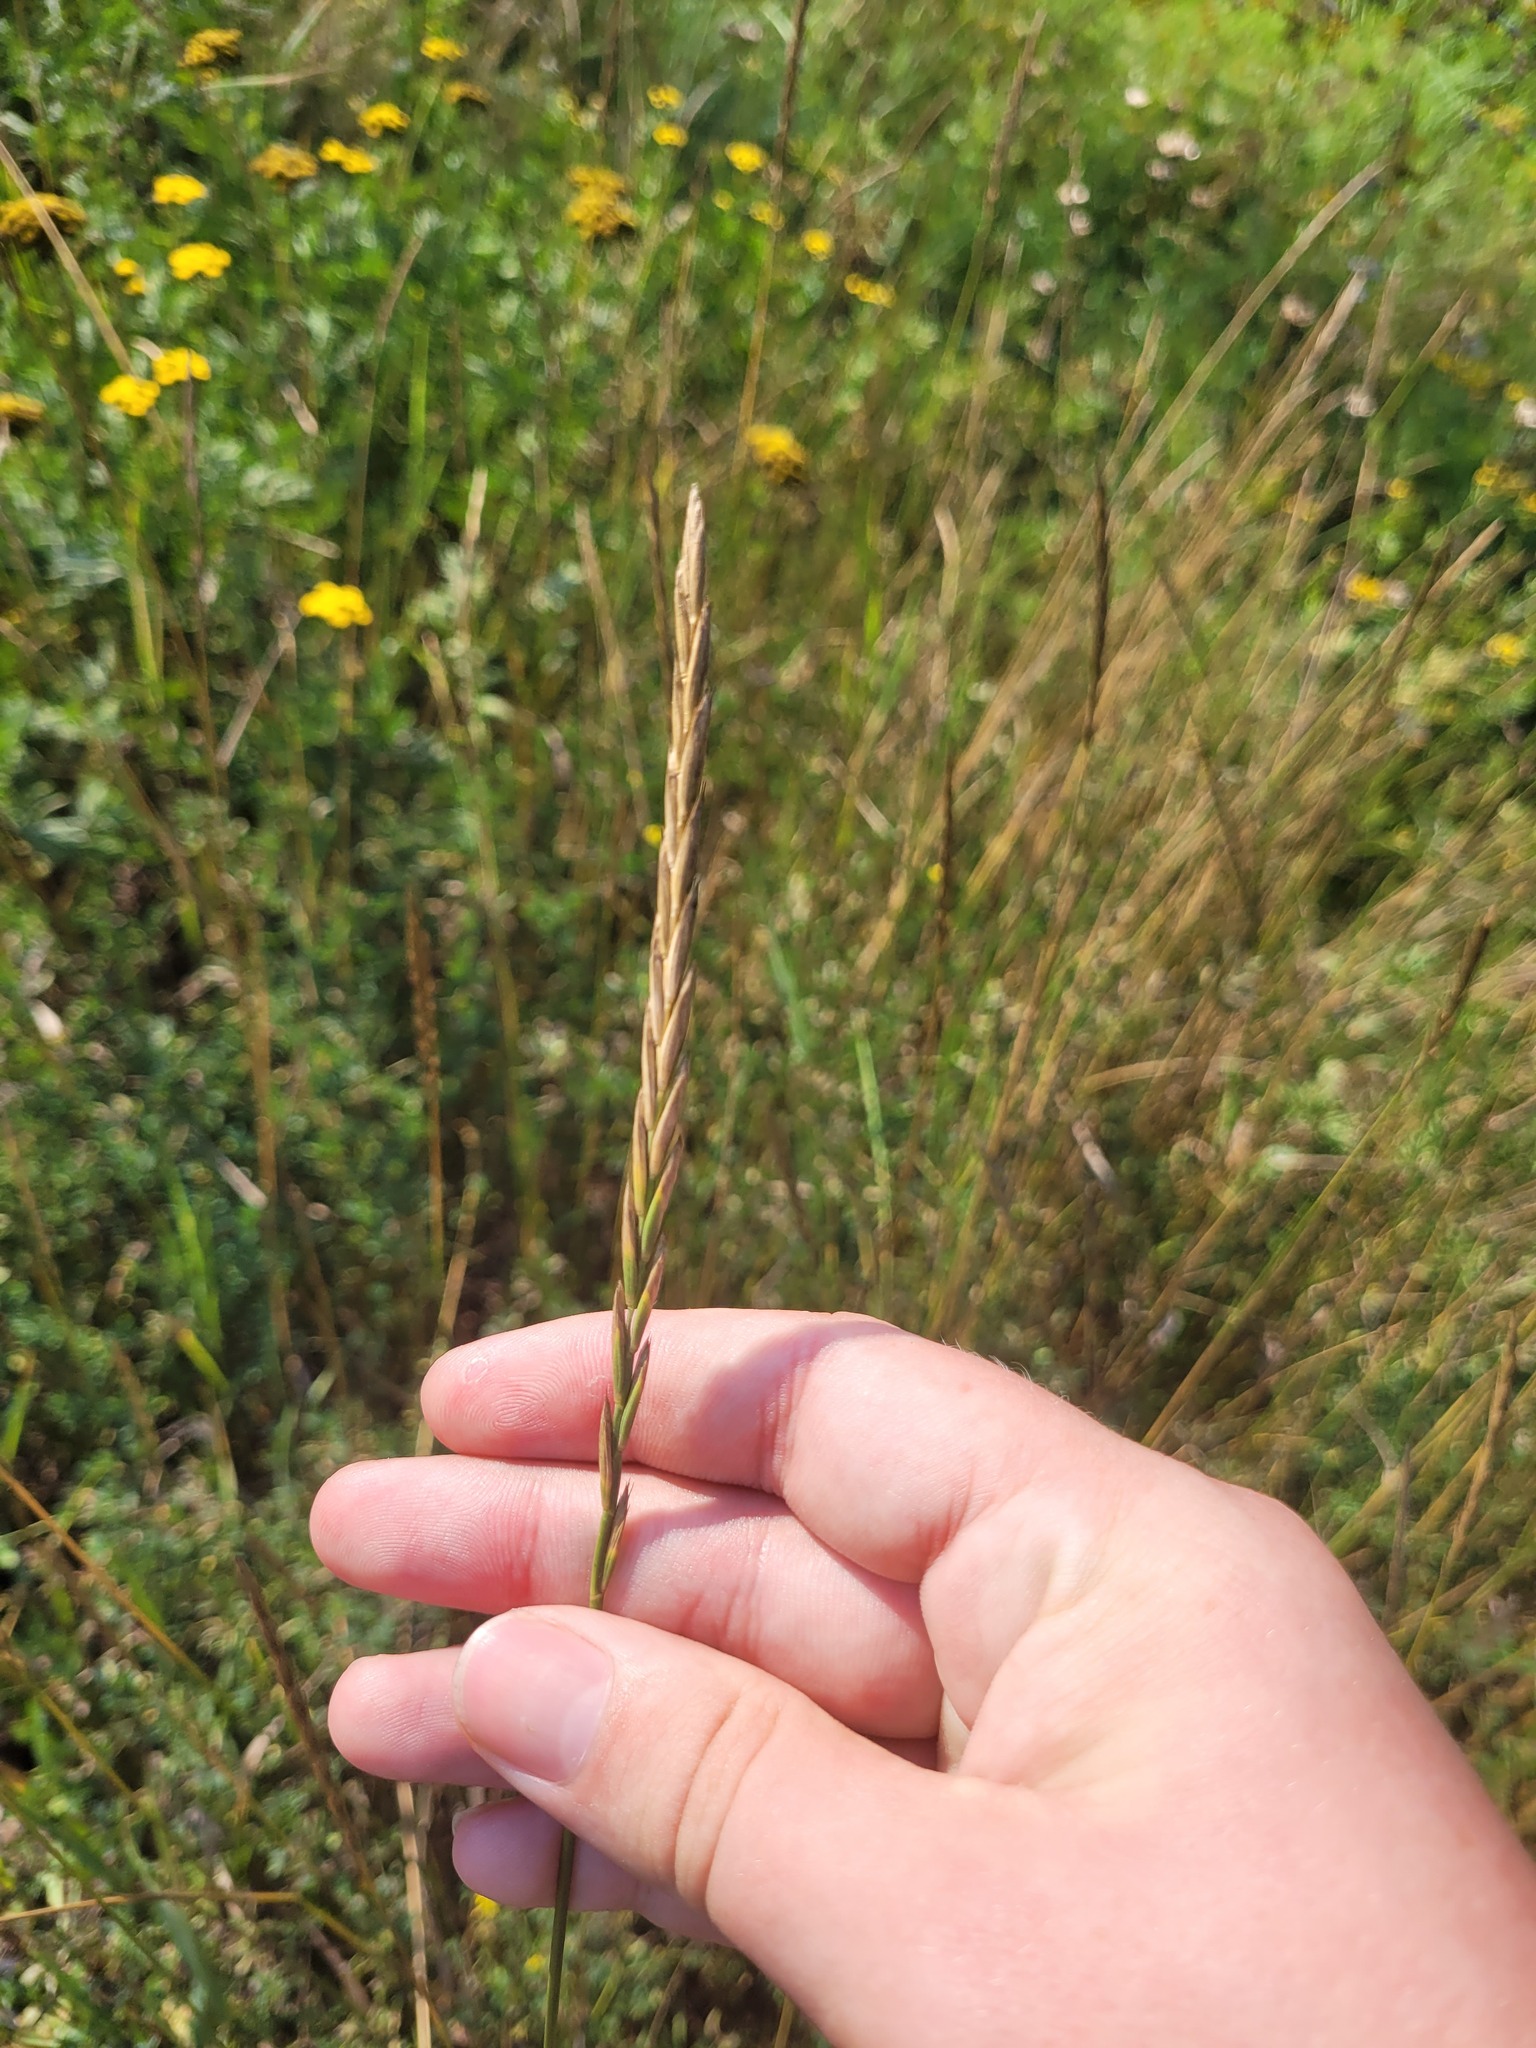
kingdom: Plantae
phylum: Tracheophyta
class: Liliopsida
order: Poales
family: Poaceae
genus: Elymus
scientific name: Elymus repens
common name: Quackgrass
